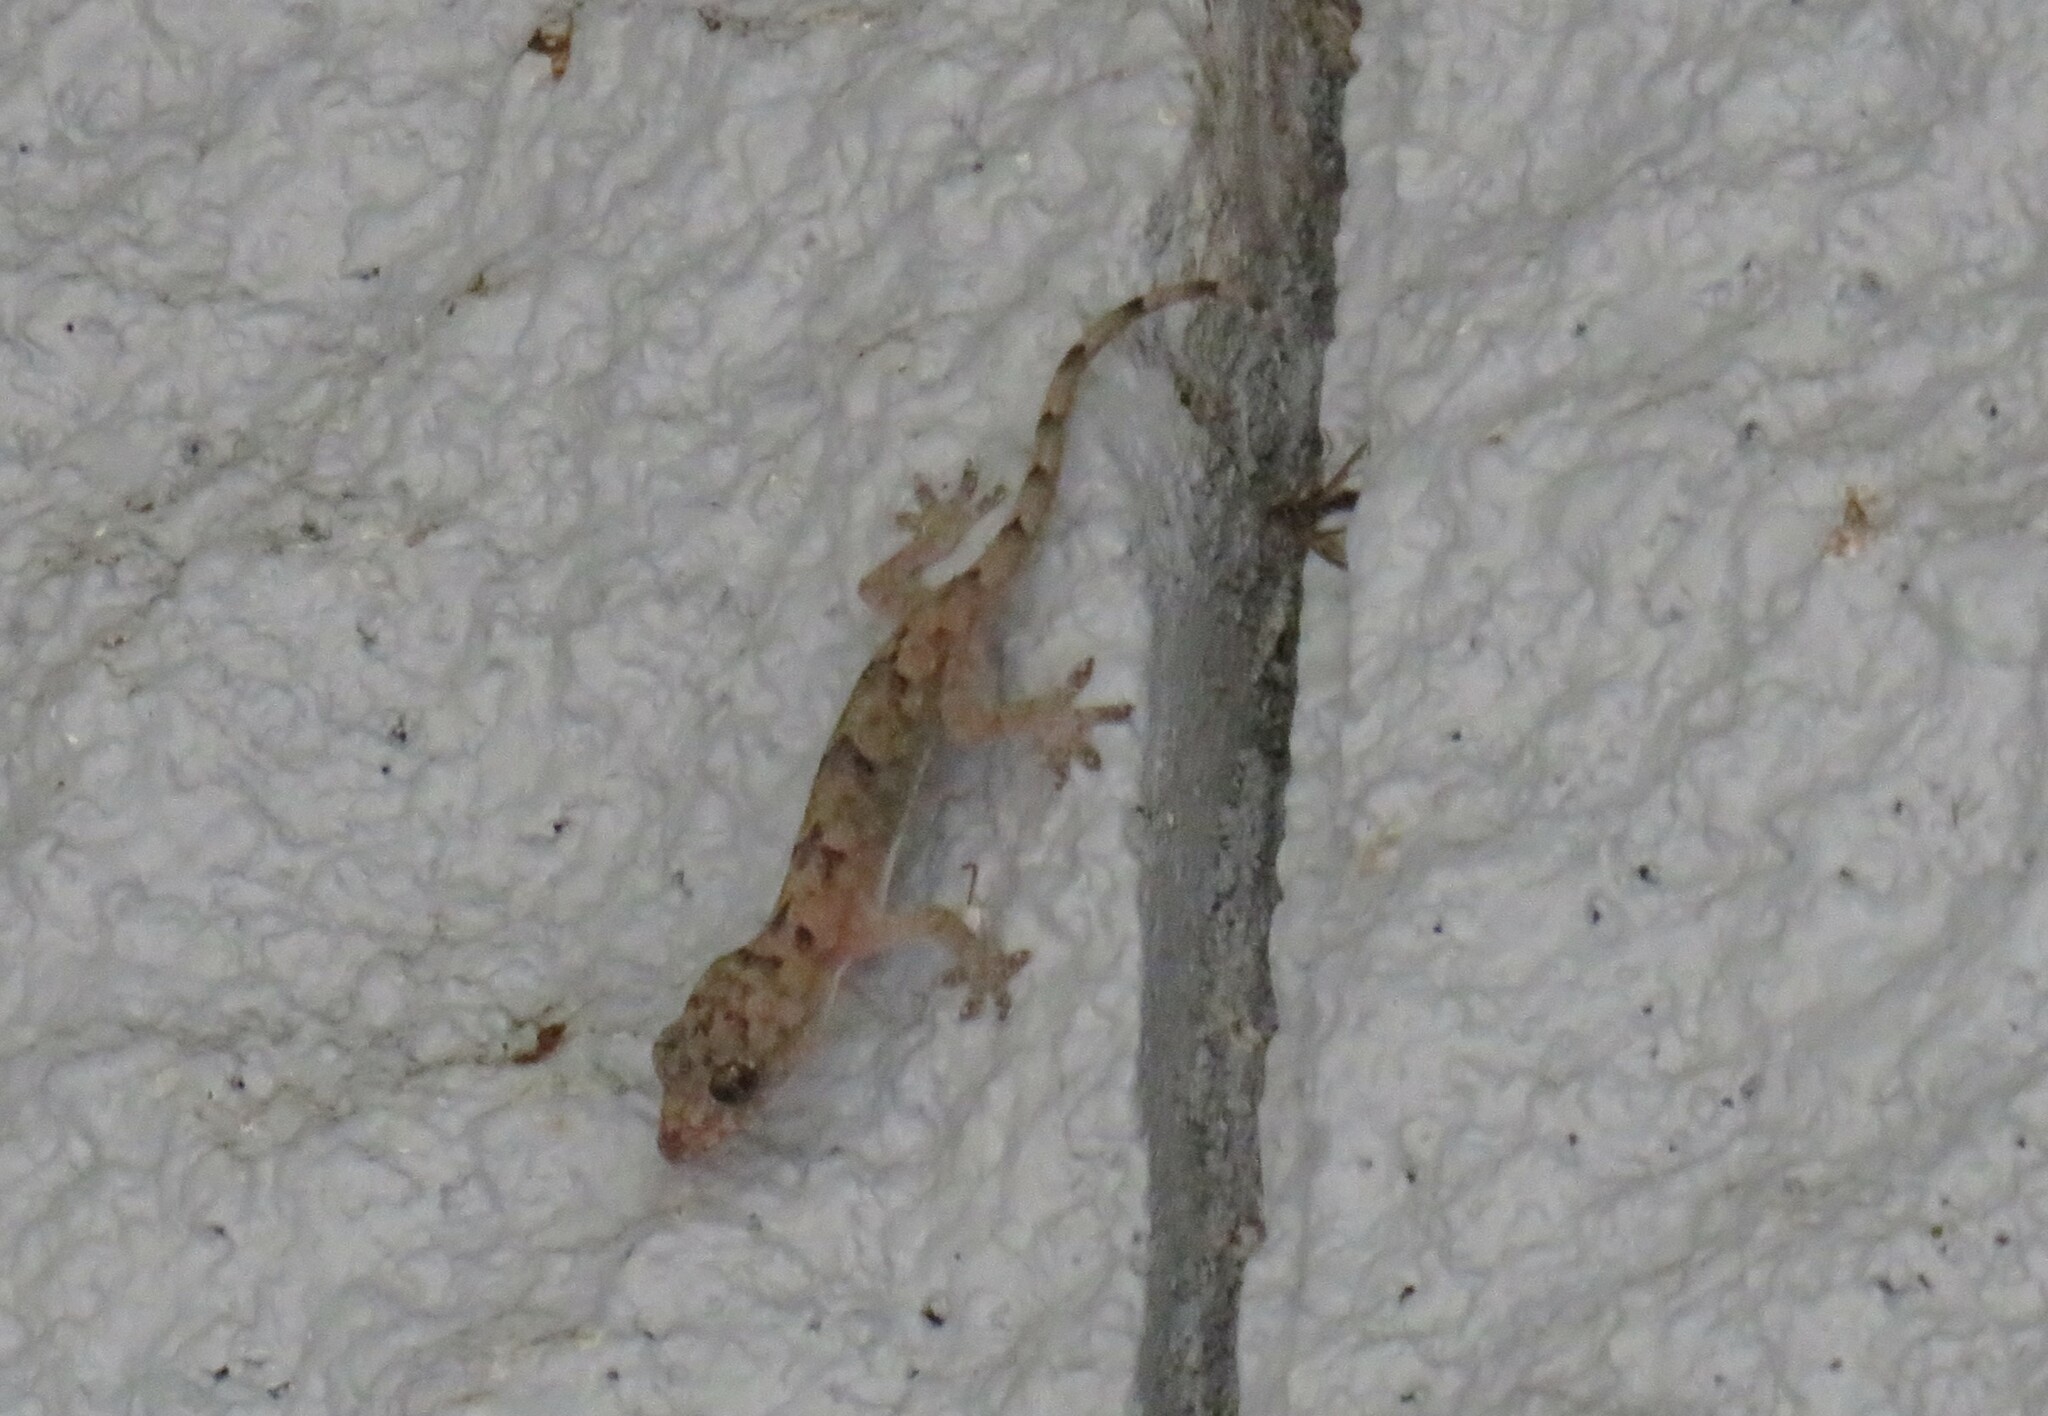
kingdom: Animalia
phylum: Chordata
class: Squamata
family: Gekkonidae
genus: Hemidactylus
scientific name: Hemidactylus mabouia
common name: House gecko
